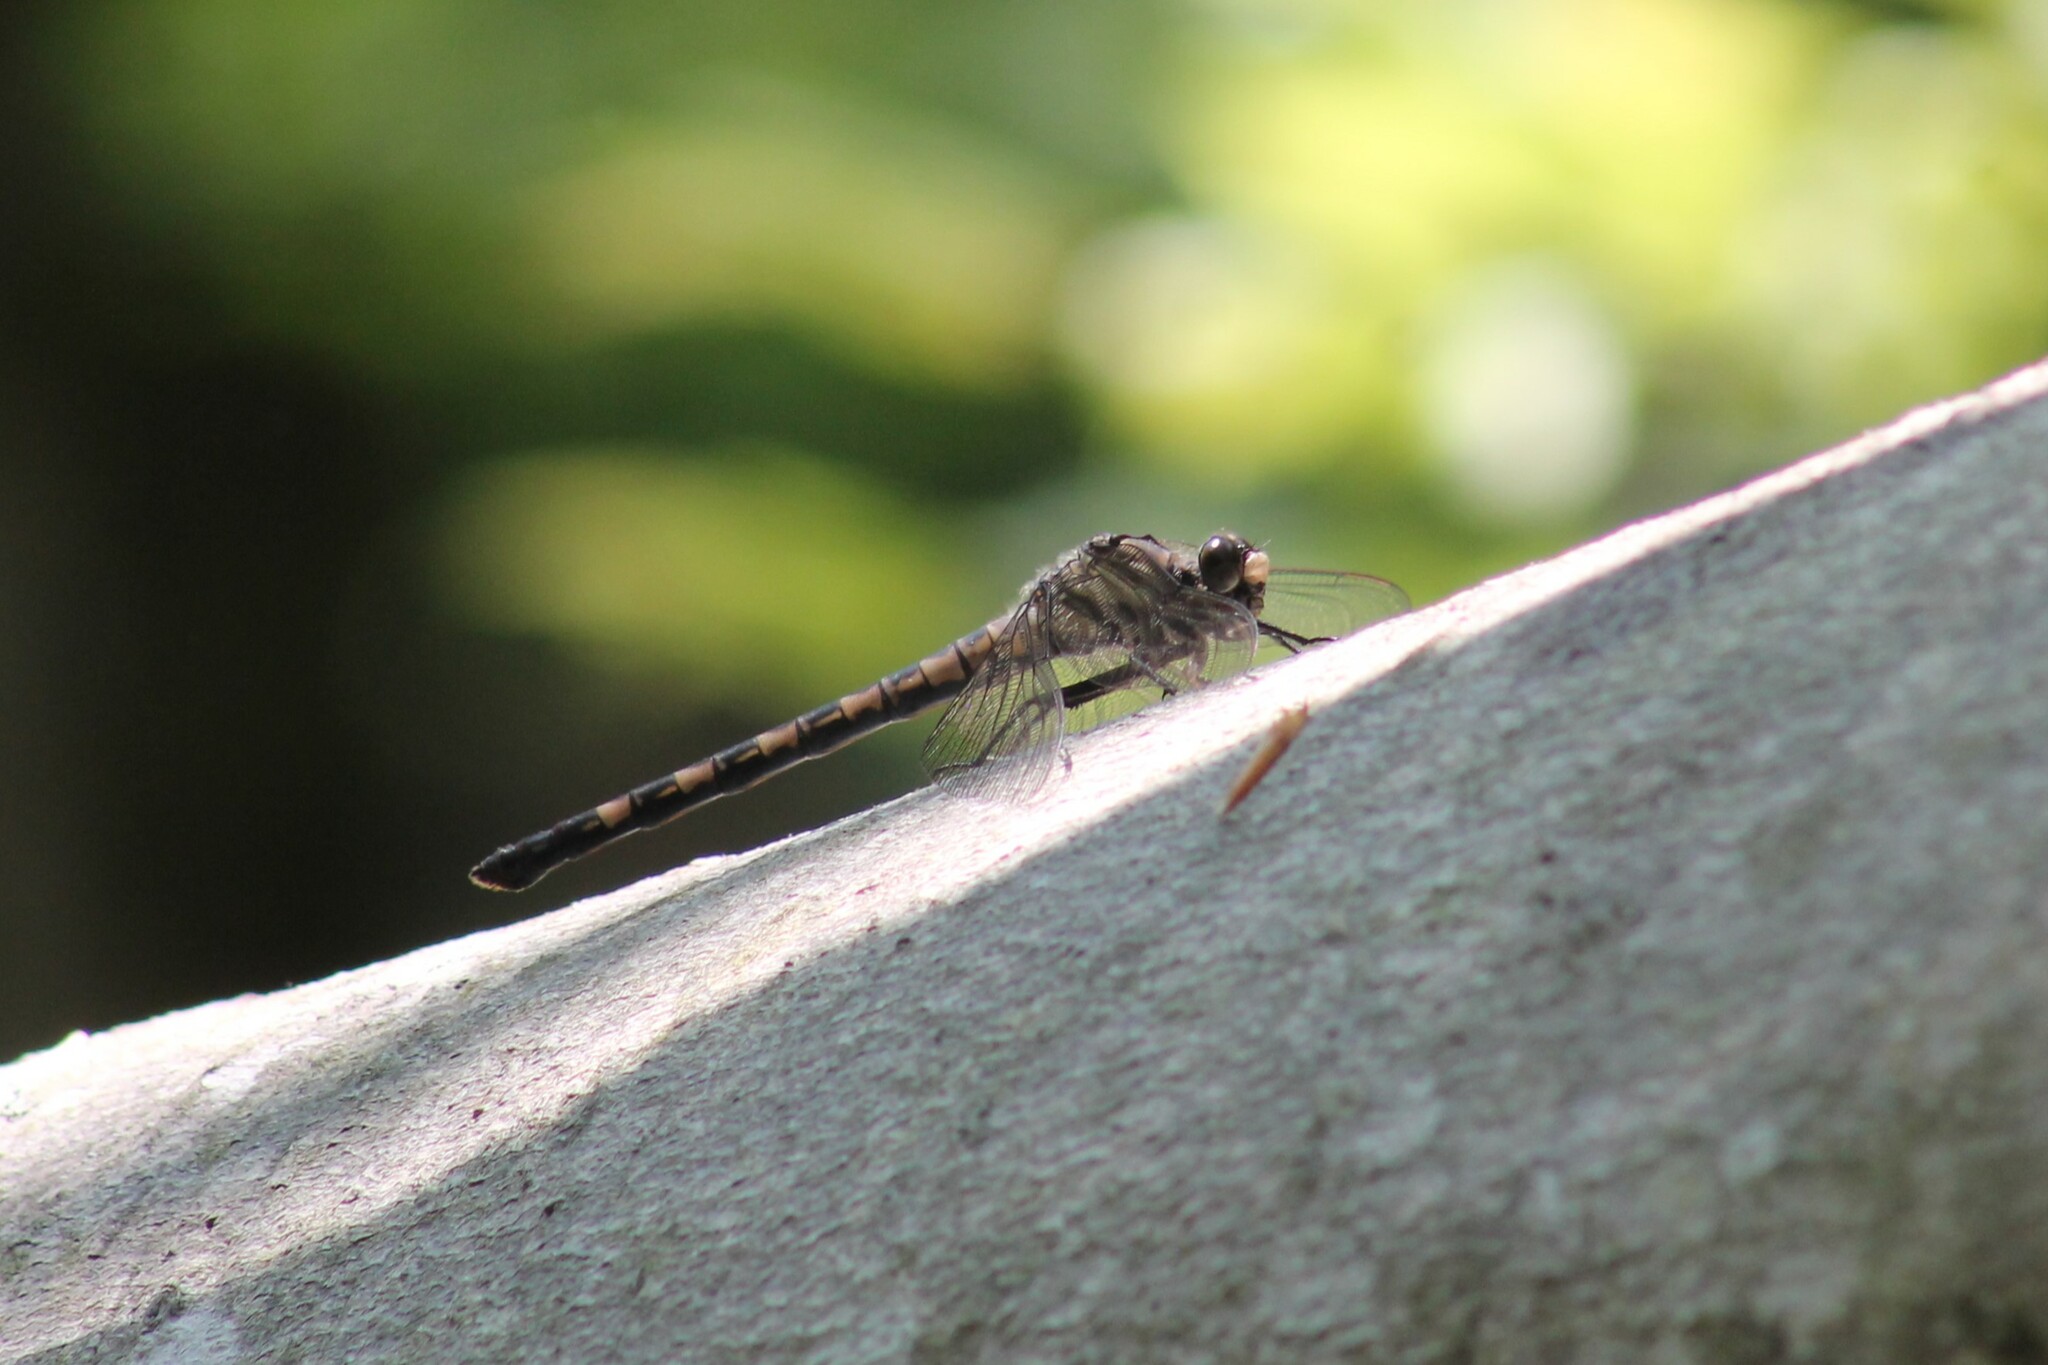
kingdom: Animalia
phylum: Arthropoda
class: Insecta
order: Odonata
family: Petaluridae
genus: Tachopteryx
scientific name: Tachopteryx thoreyi
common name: Gray petaltail
